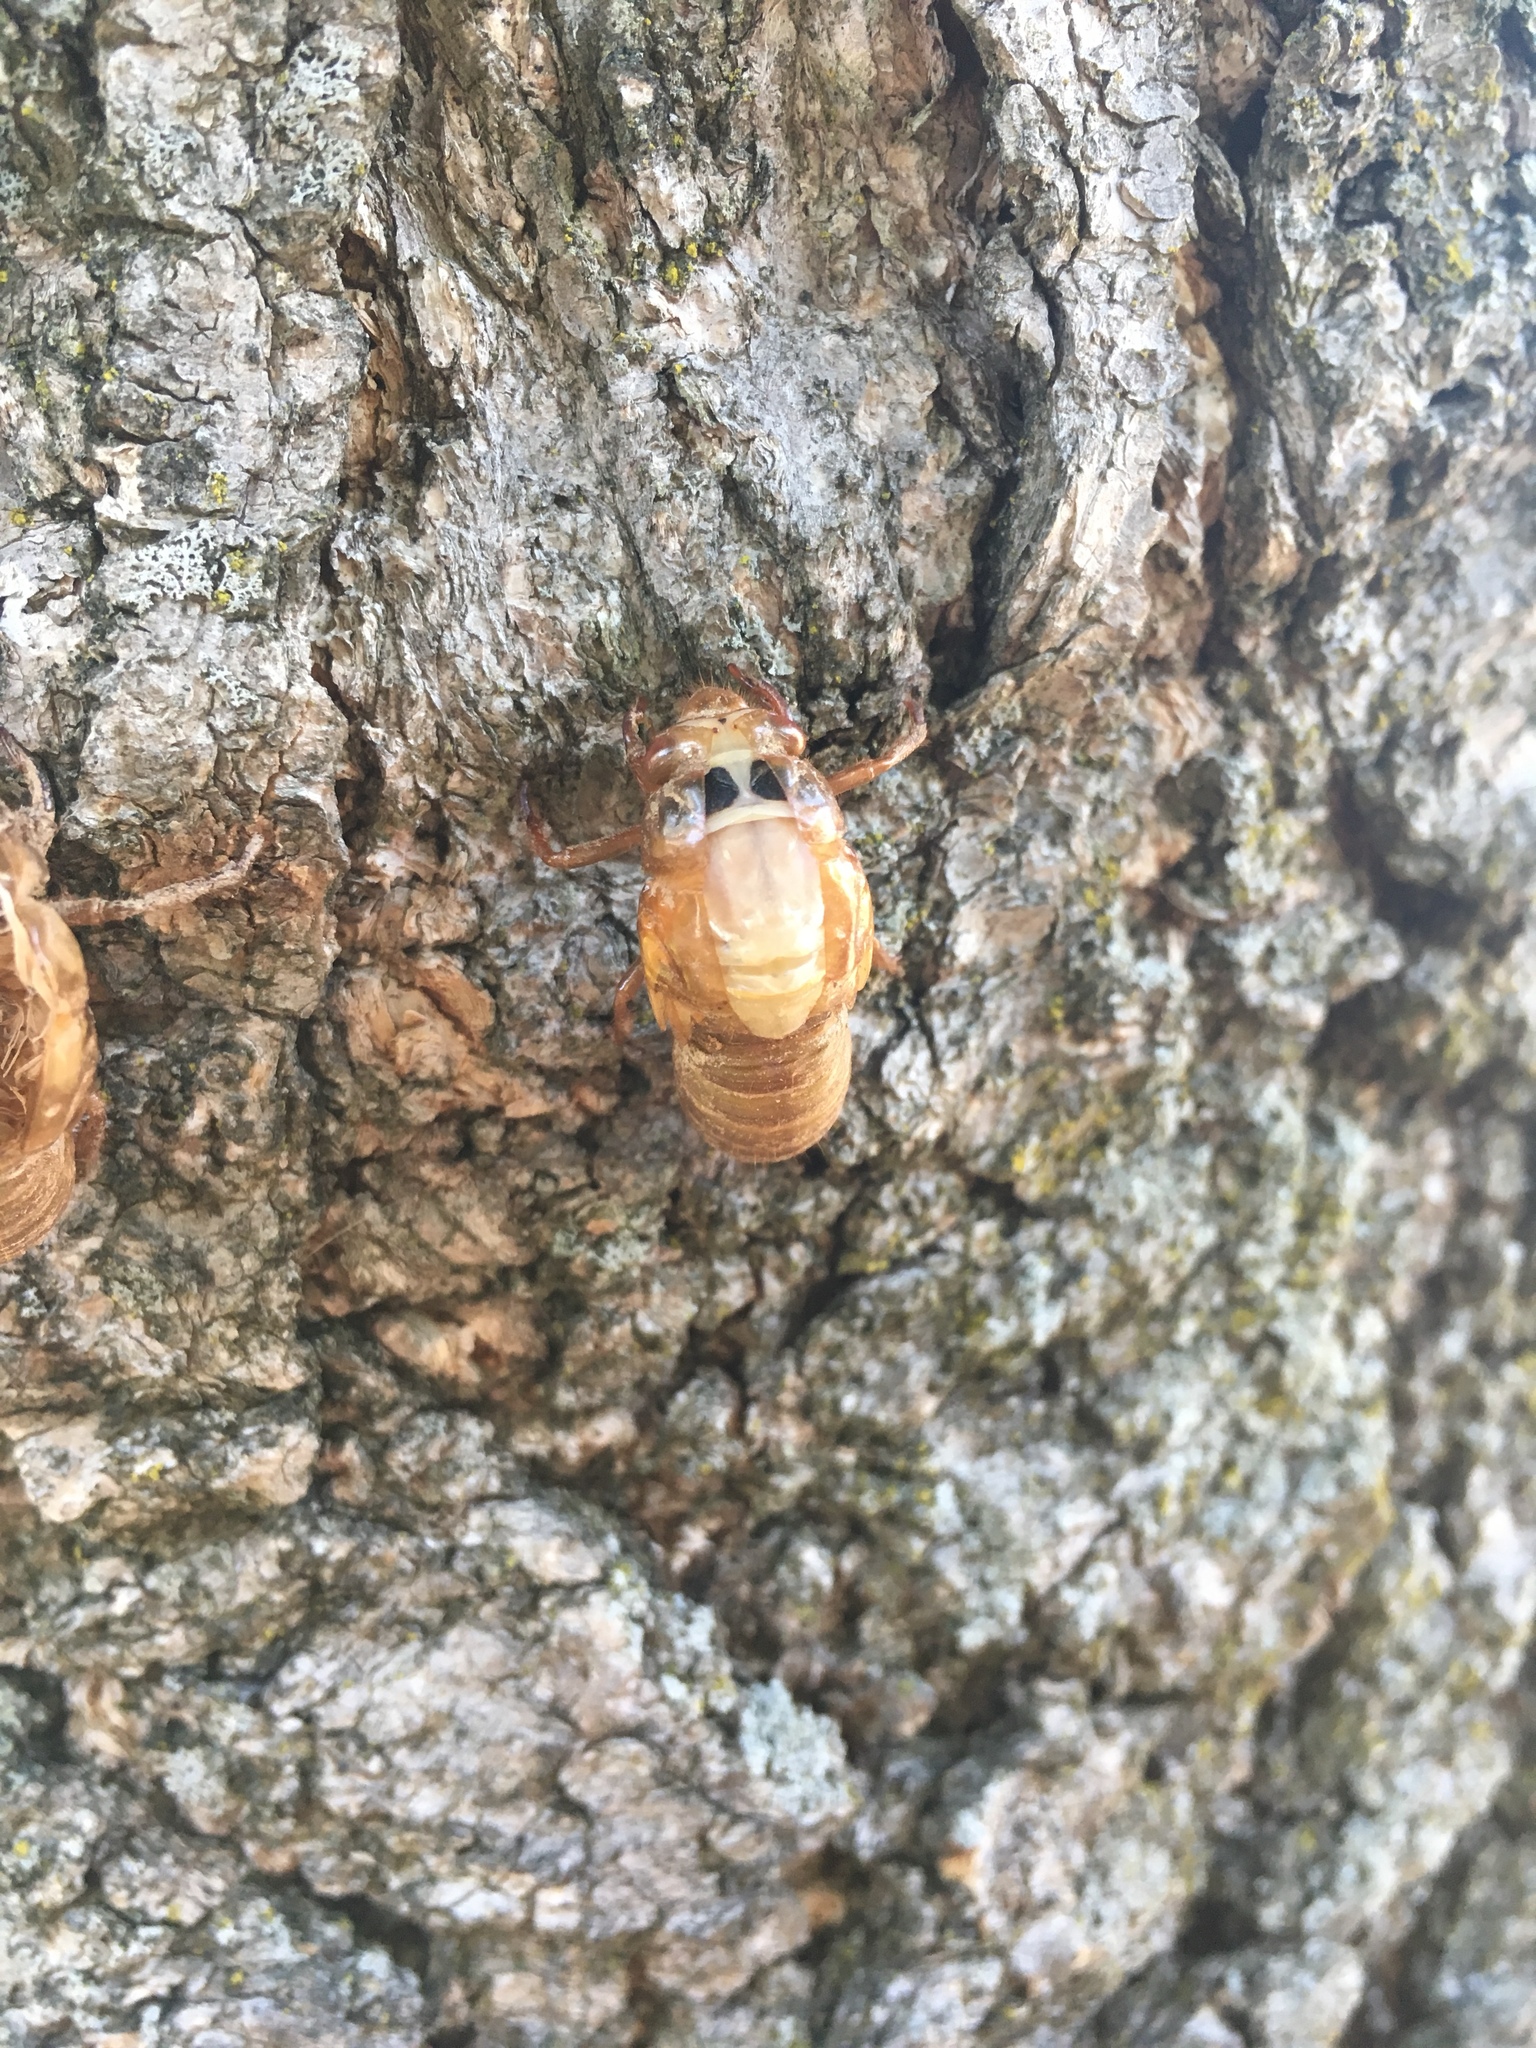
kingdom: Animalia
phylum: Arthropoda
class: Insecta
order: Hemiptera
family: Cicadidae
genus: Magicicada
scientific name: Magicicada
